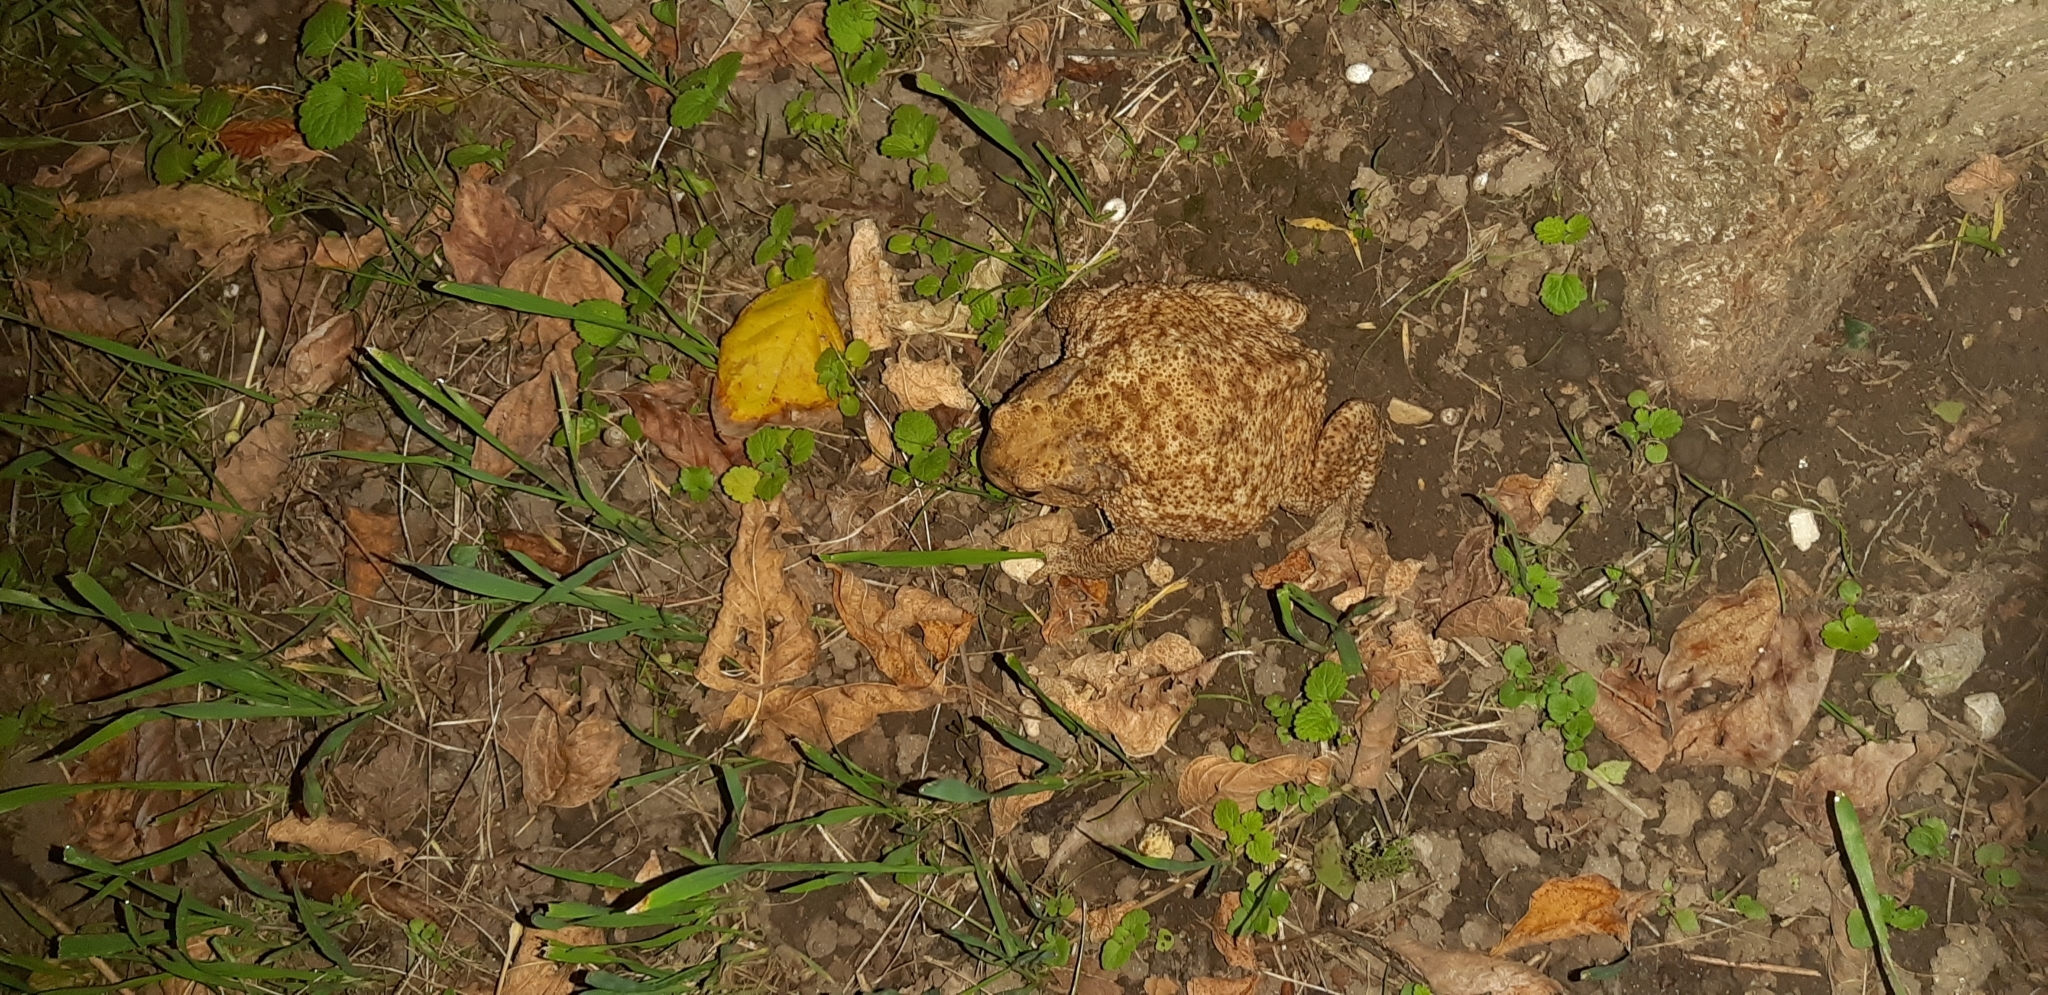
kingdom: Animalia
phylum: Chordata
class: Amphibia
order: Anura
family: Bufonidae
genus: Bufo
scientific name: Bufo bufo
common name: Common toad
